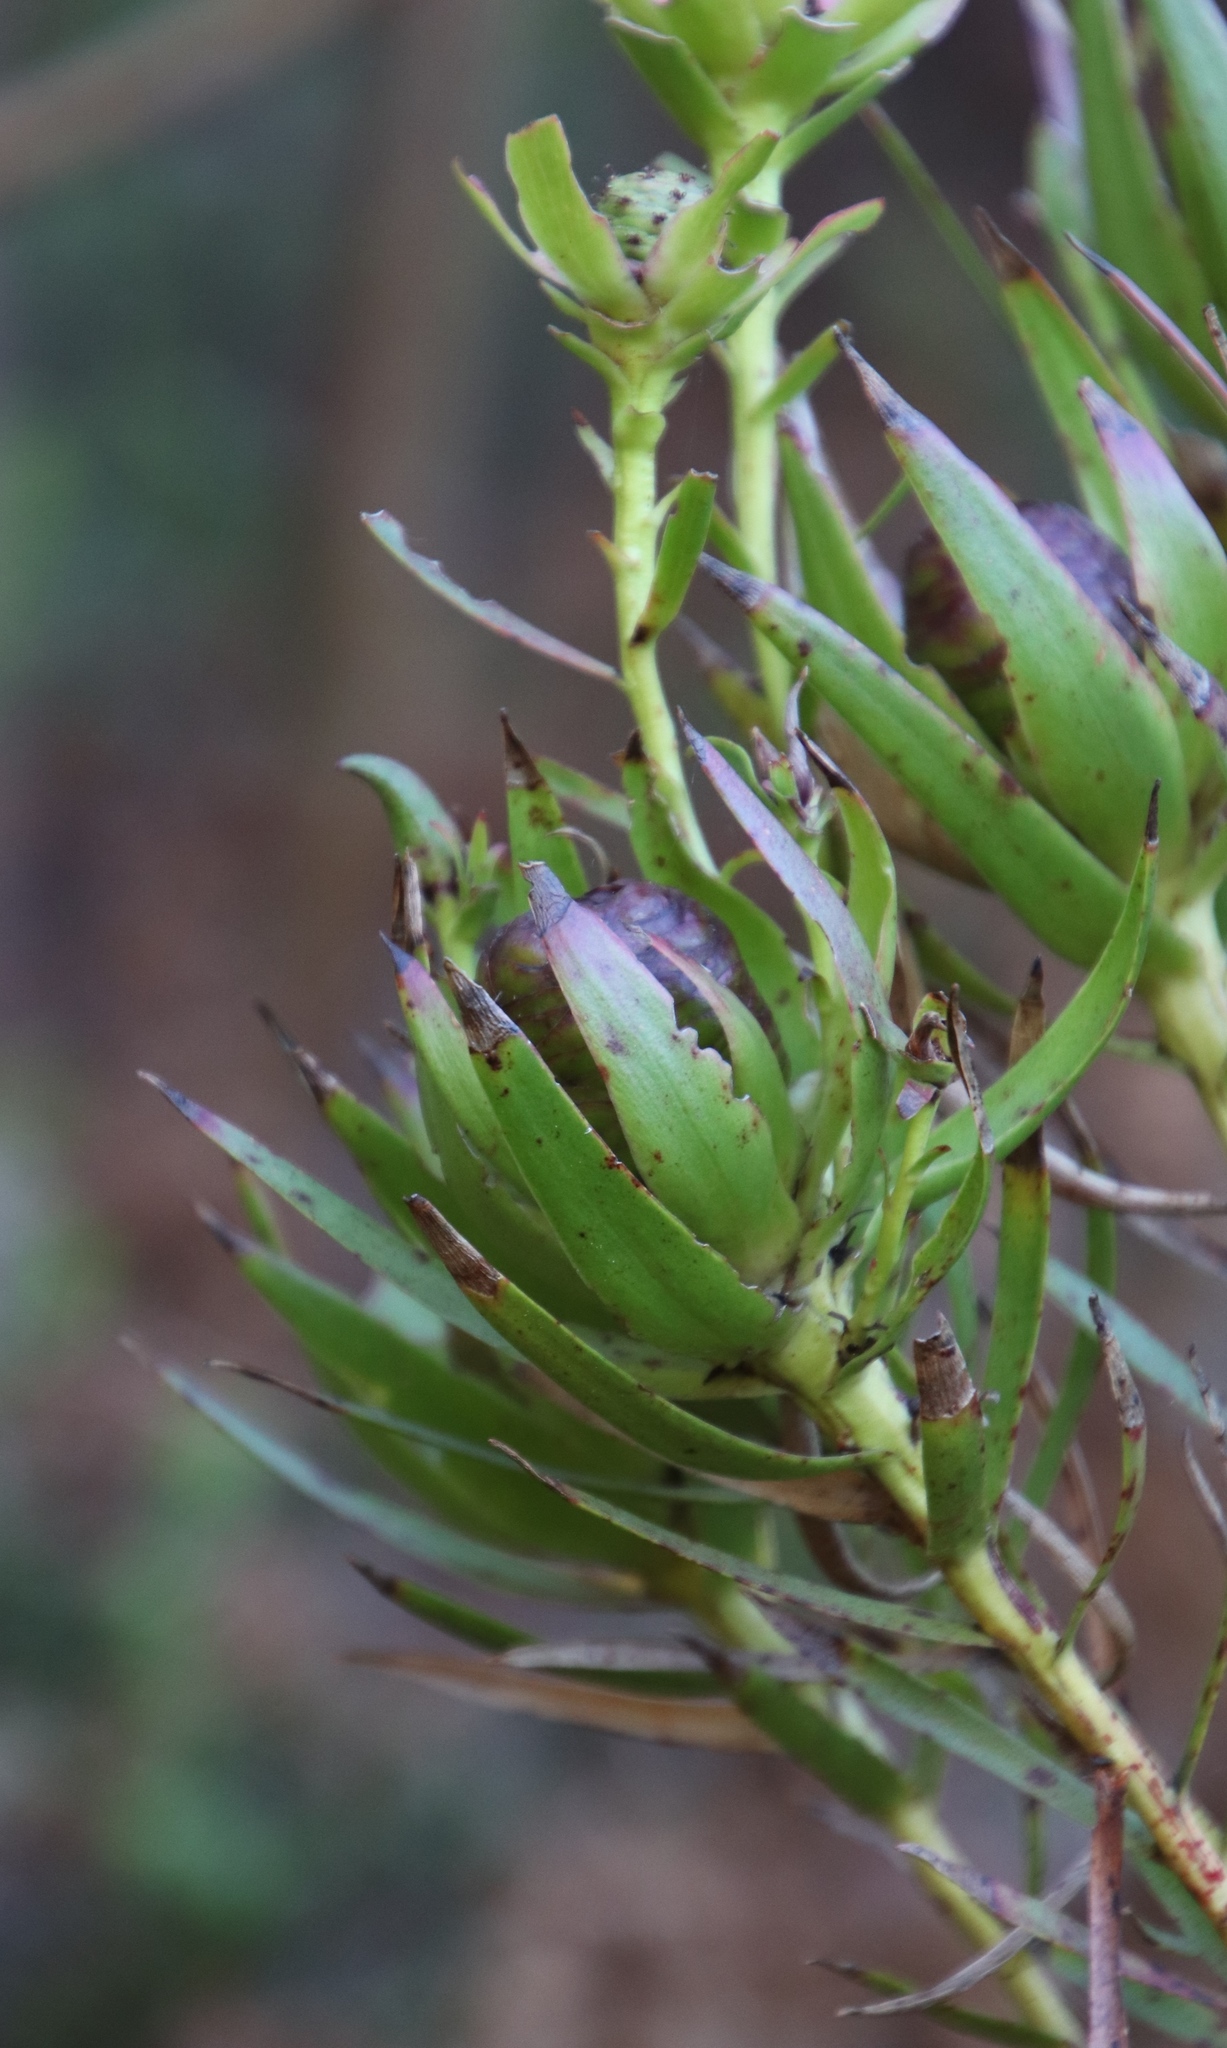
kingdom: Plantae
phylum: Tracheophyta
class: Magnoliopsida
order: Proteales
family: Proteaceae
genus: Leucadendron
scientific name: Leucadendron spissifolium
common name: Spear-leaf conebush
